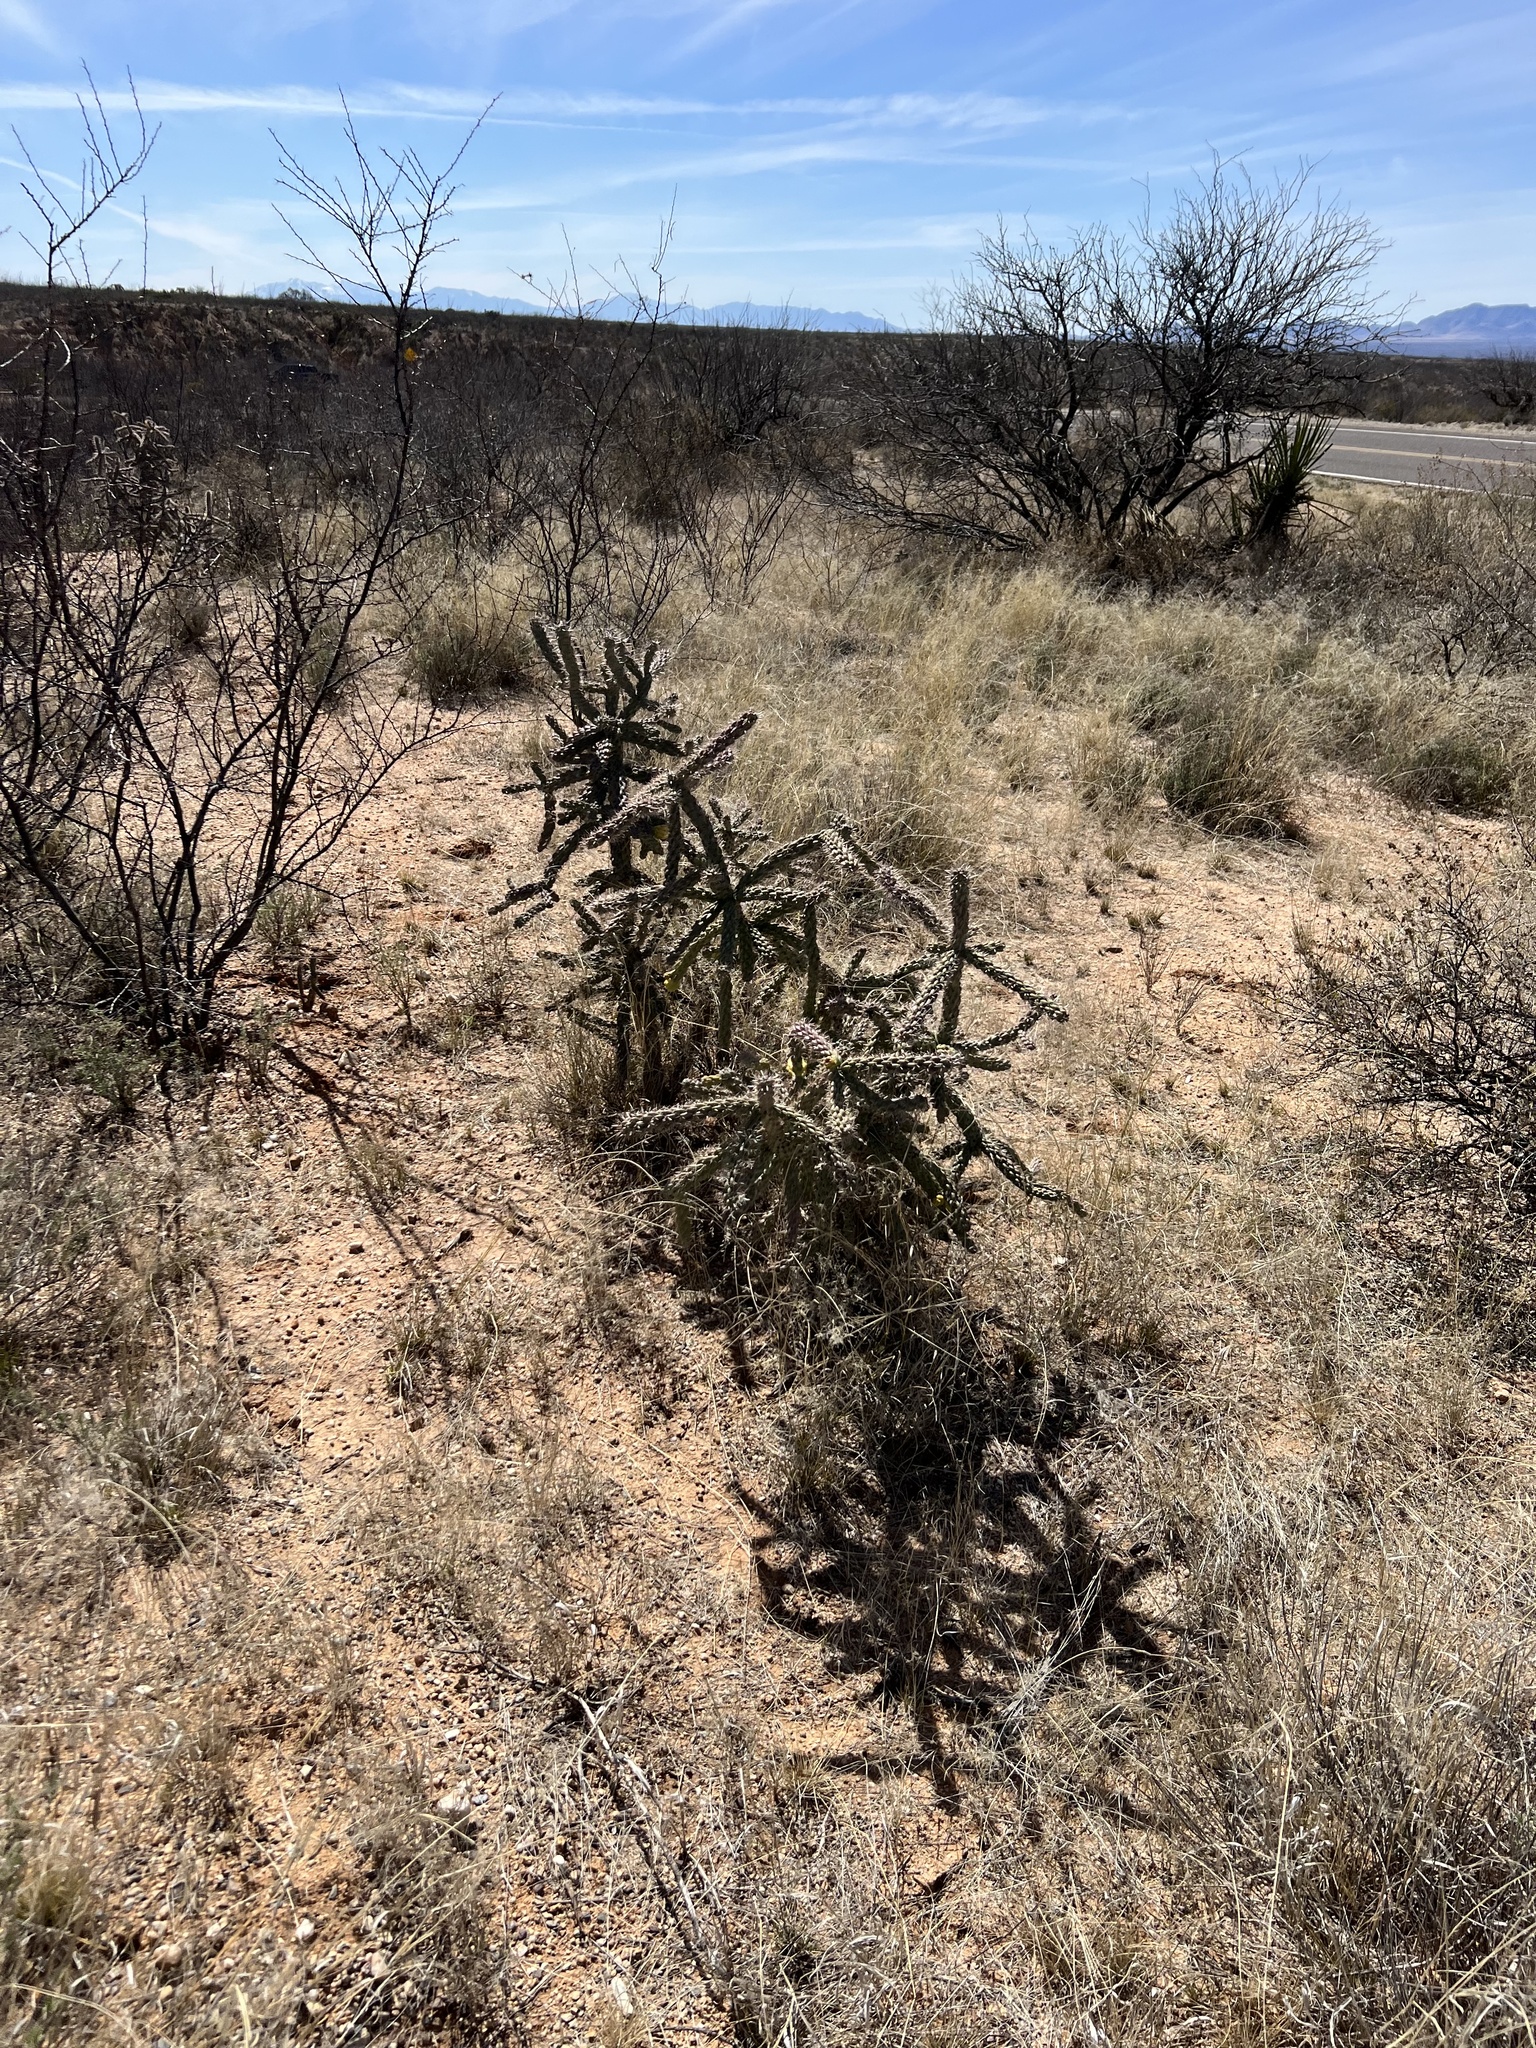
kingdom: Plantae
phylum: Tracheophyta
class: Magnoliopsida
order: Caryophyllales
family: Cactaceae
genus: Cylindropuntia
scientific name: Cylindropuntia imbricata
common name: Candelabrum cactus
